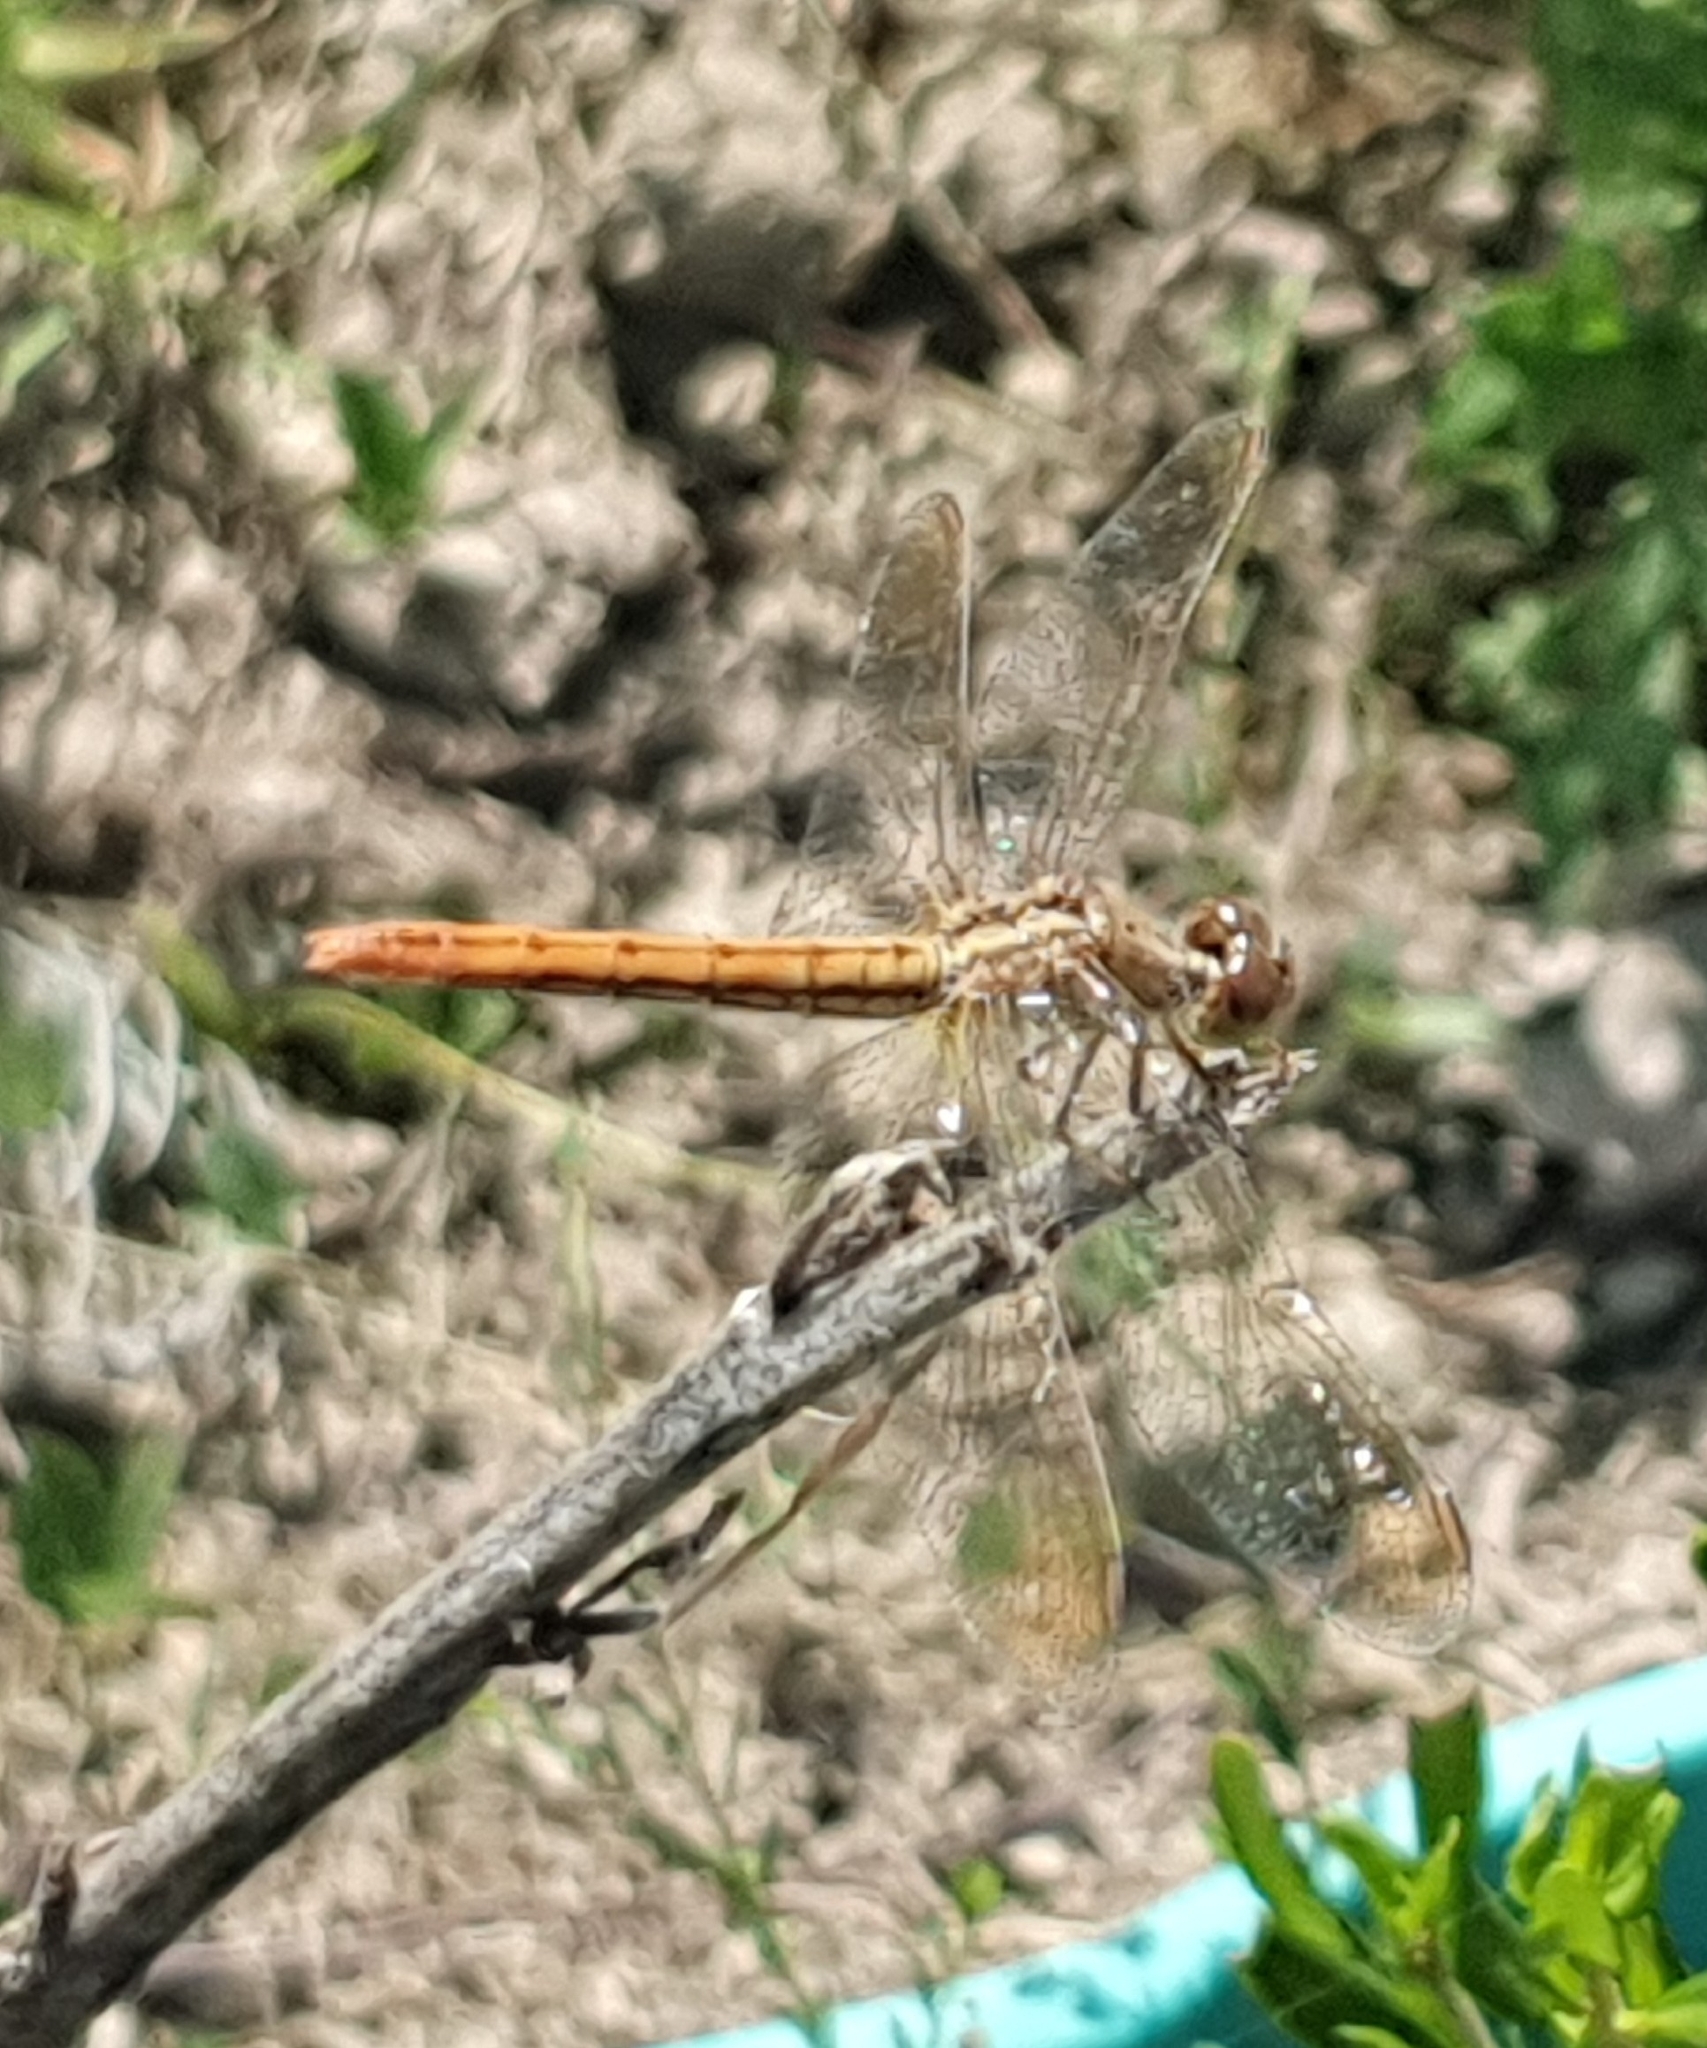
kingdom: Animalia
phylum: Arthropoda
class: Insecta
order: Odonata
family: Libellulidae
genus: Diplacodes
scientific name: Diplacodes haematodes
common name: Scarlet percher
